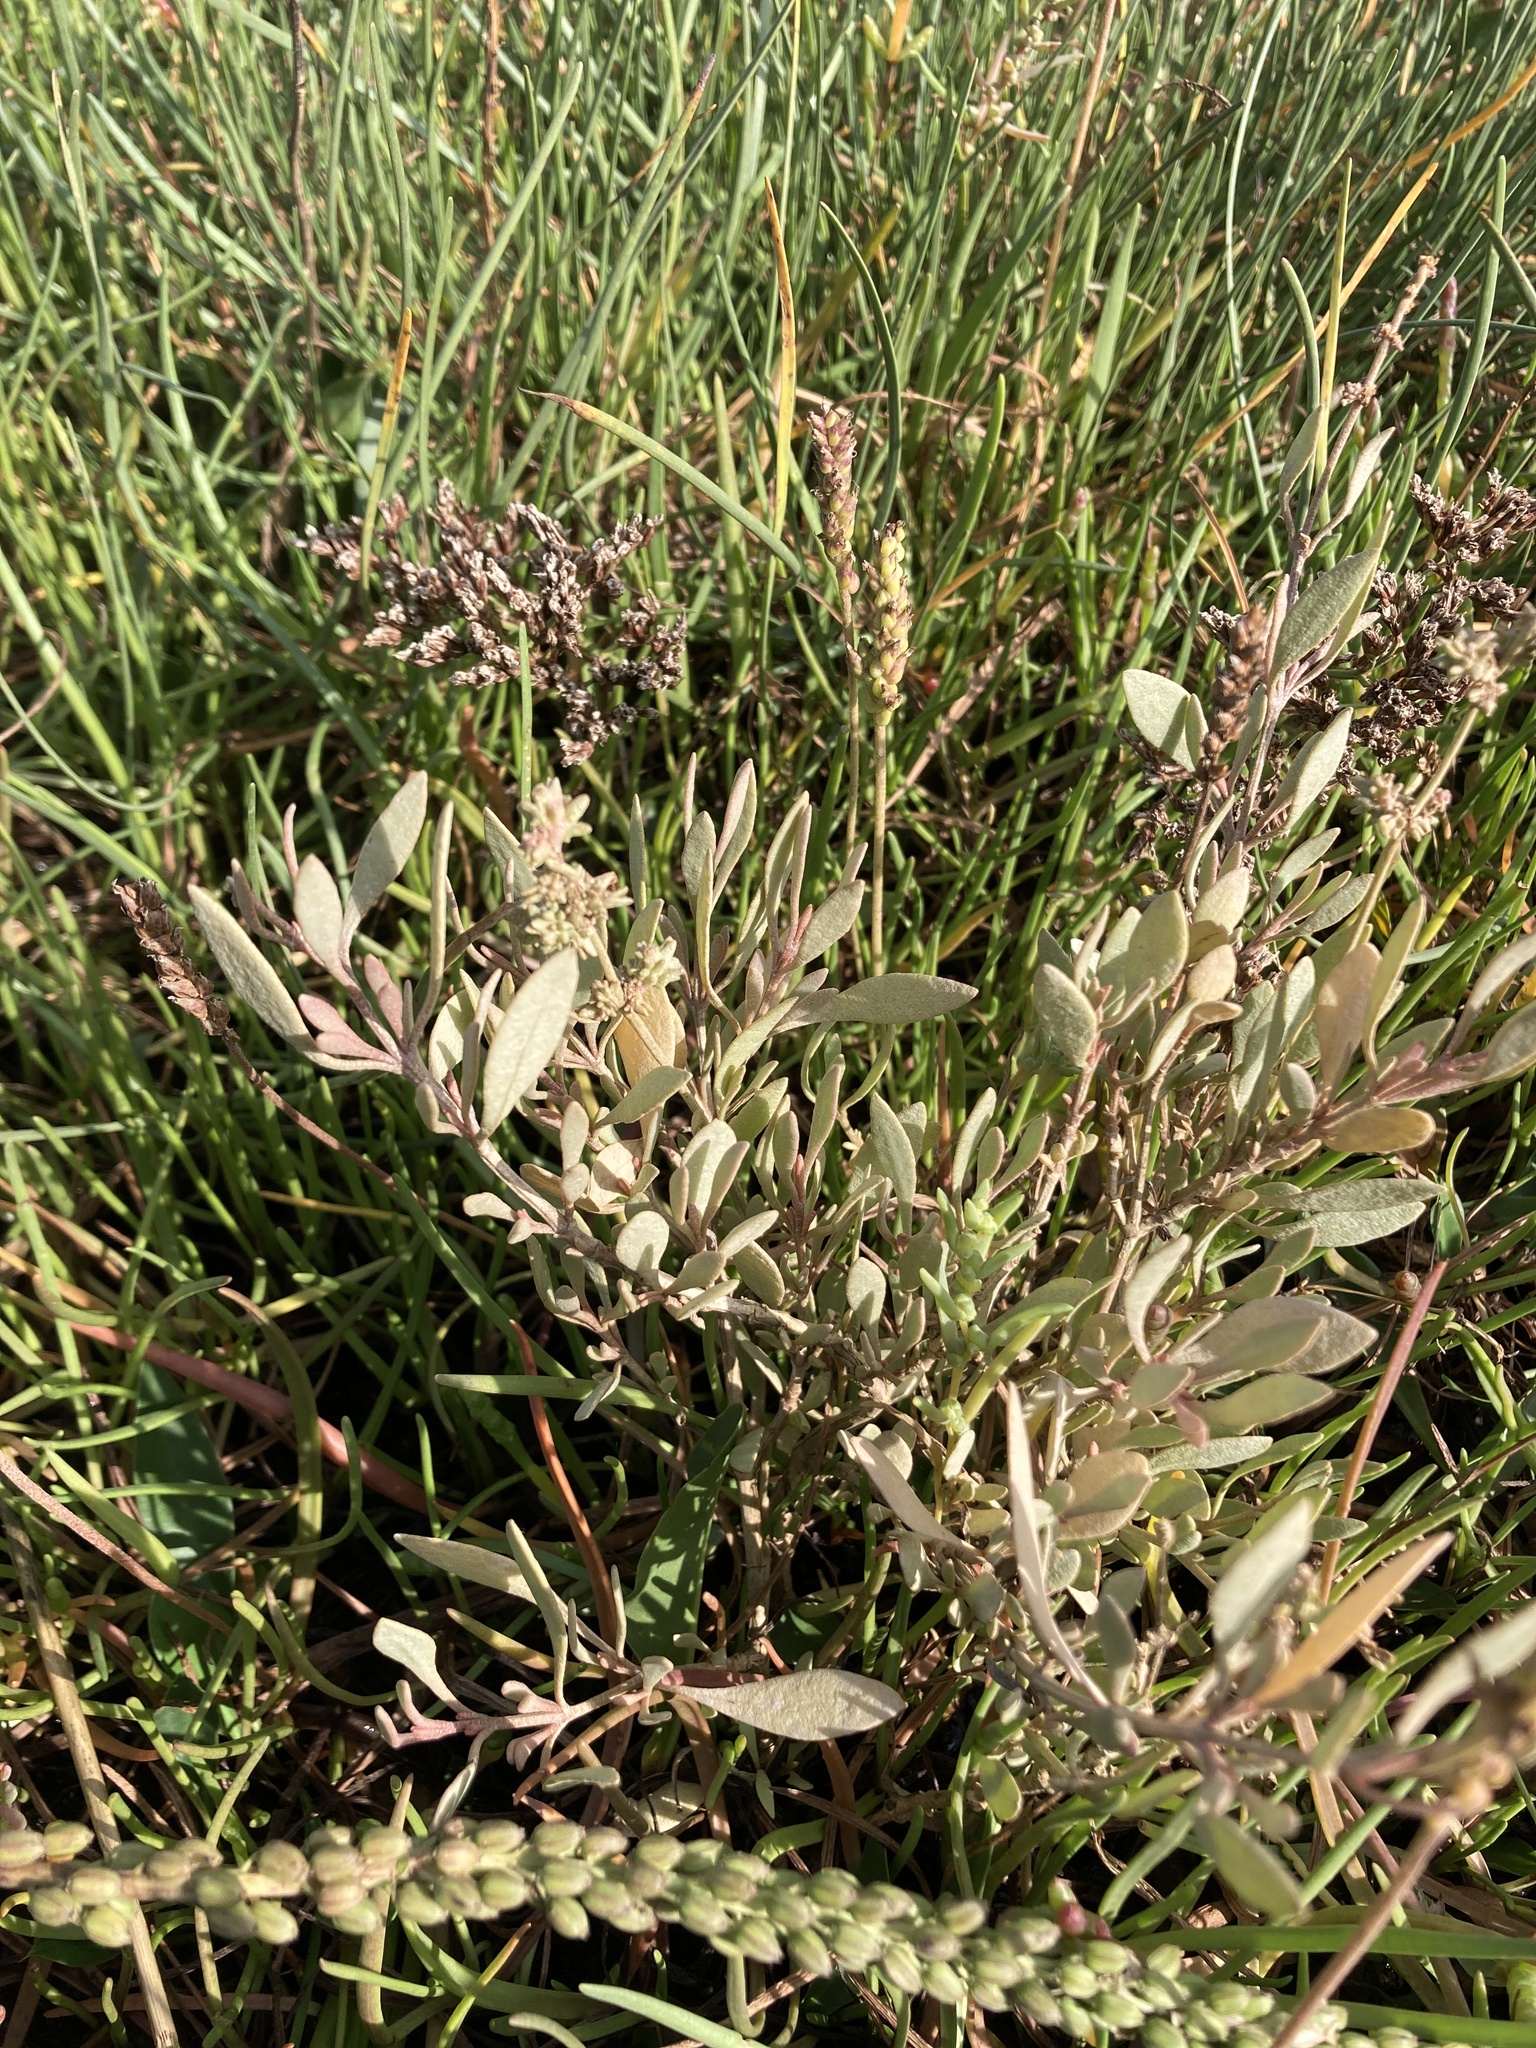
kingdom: Plantae
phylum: Tracheophyta
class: Magnoliopsida
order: Caryophyllales
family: Amaranthaceae
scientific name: Amaranthaceae
